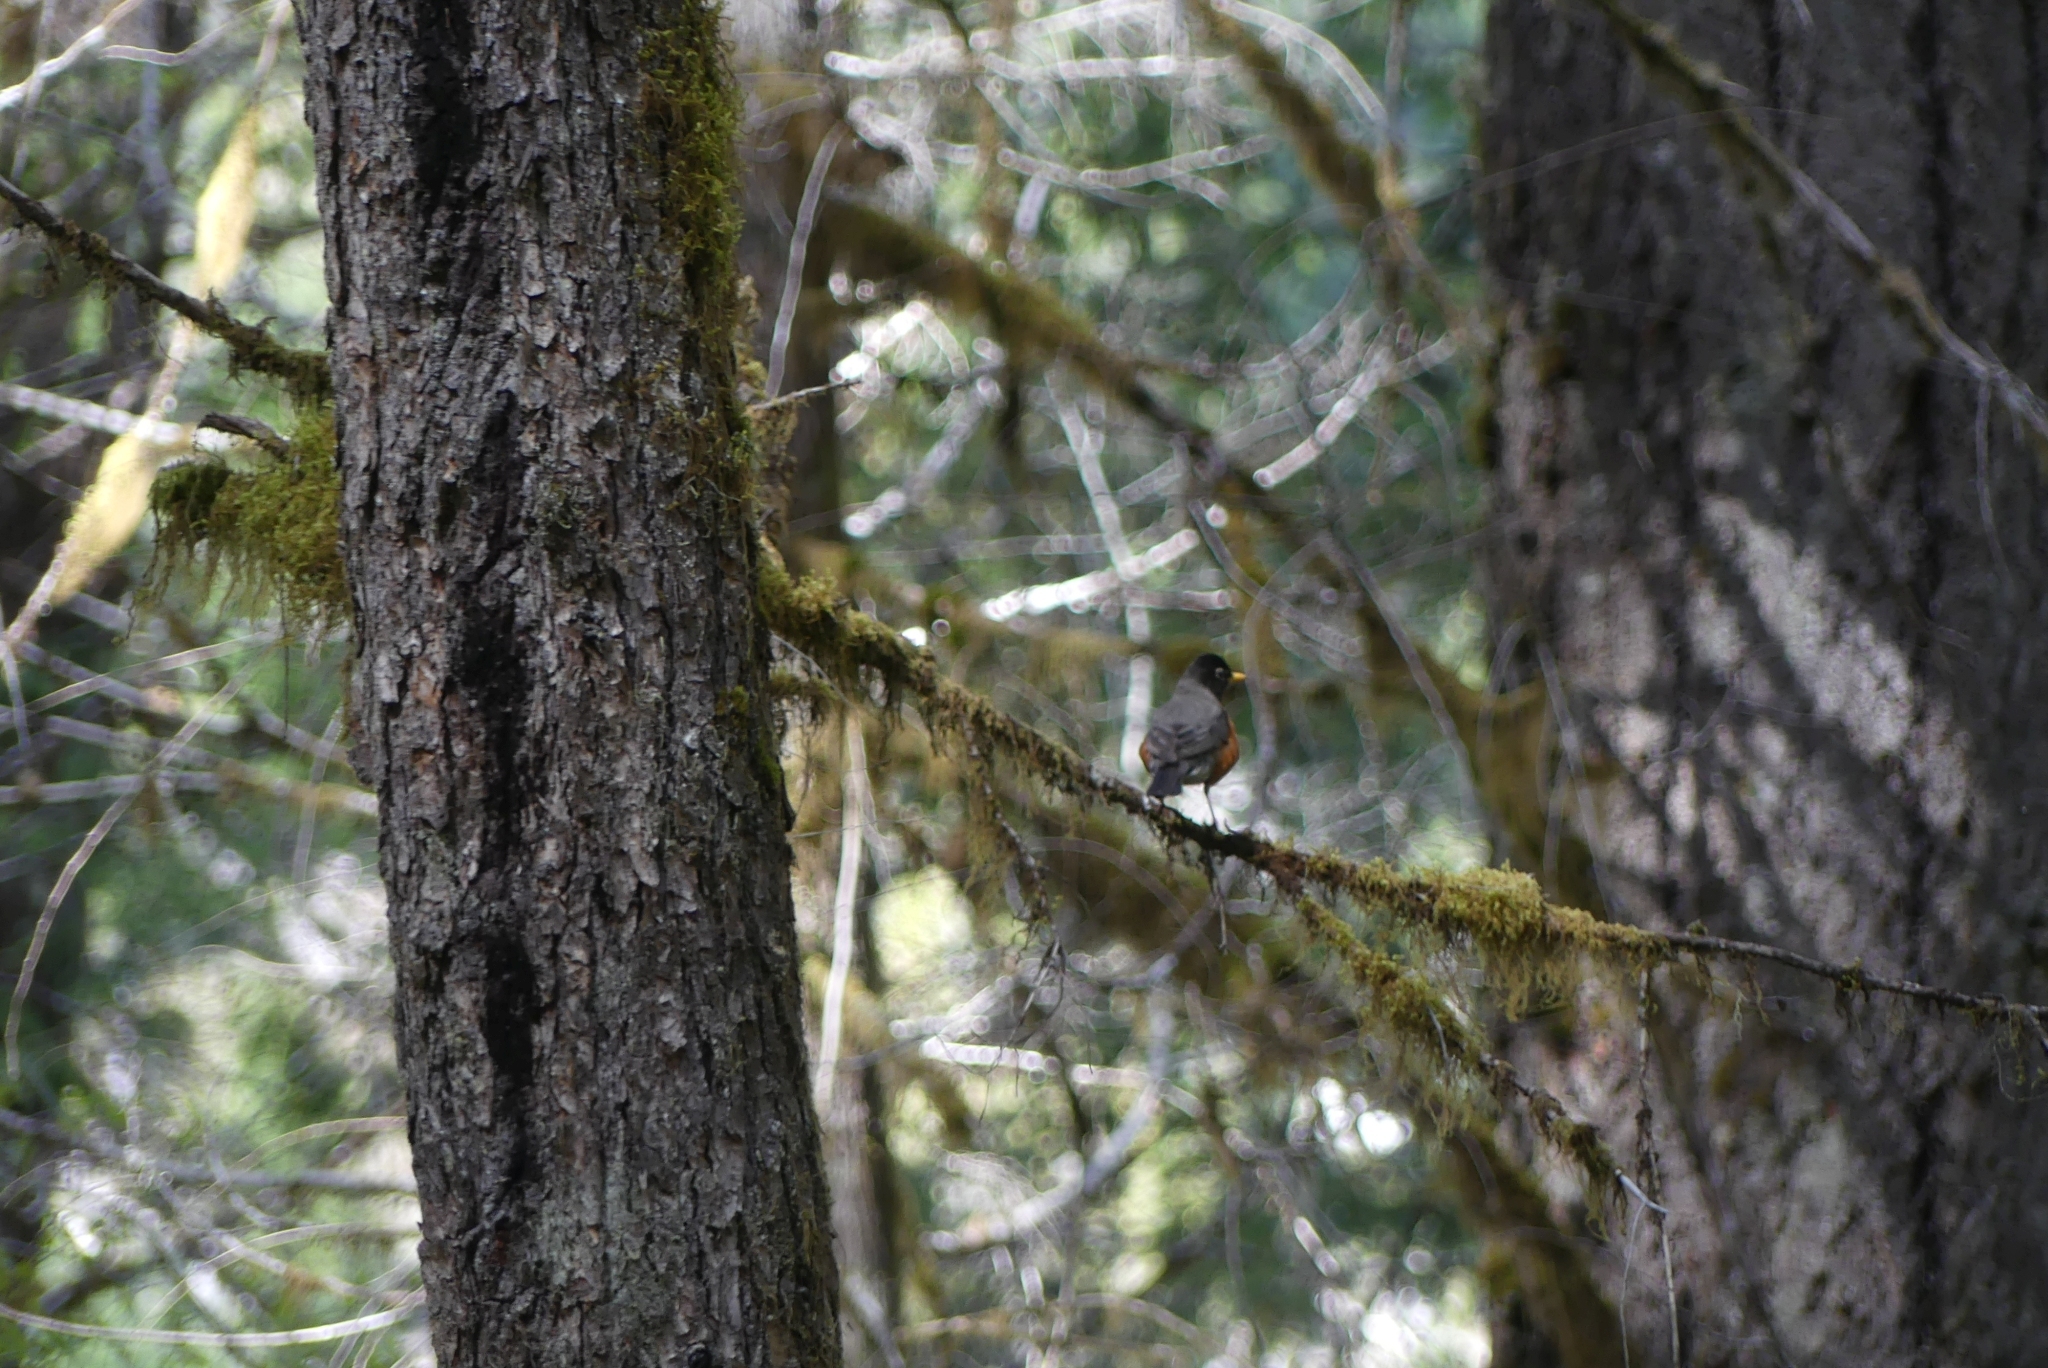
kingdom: Animalia
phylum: Chordata
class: Aves
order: Passeriformes
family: Turdidae
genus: Turdus
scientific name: Turdus migratorius
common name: American robin
